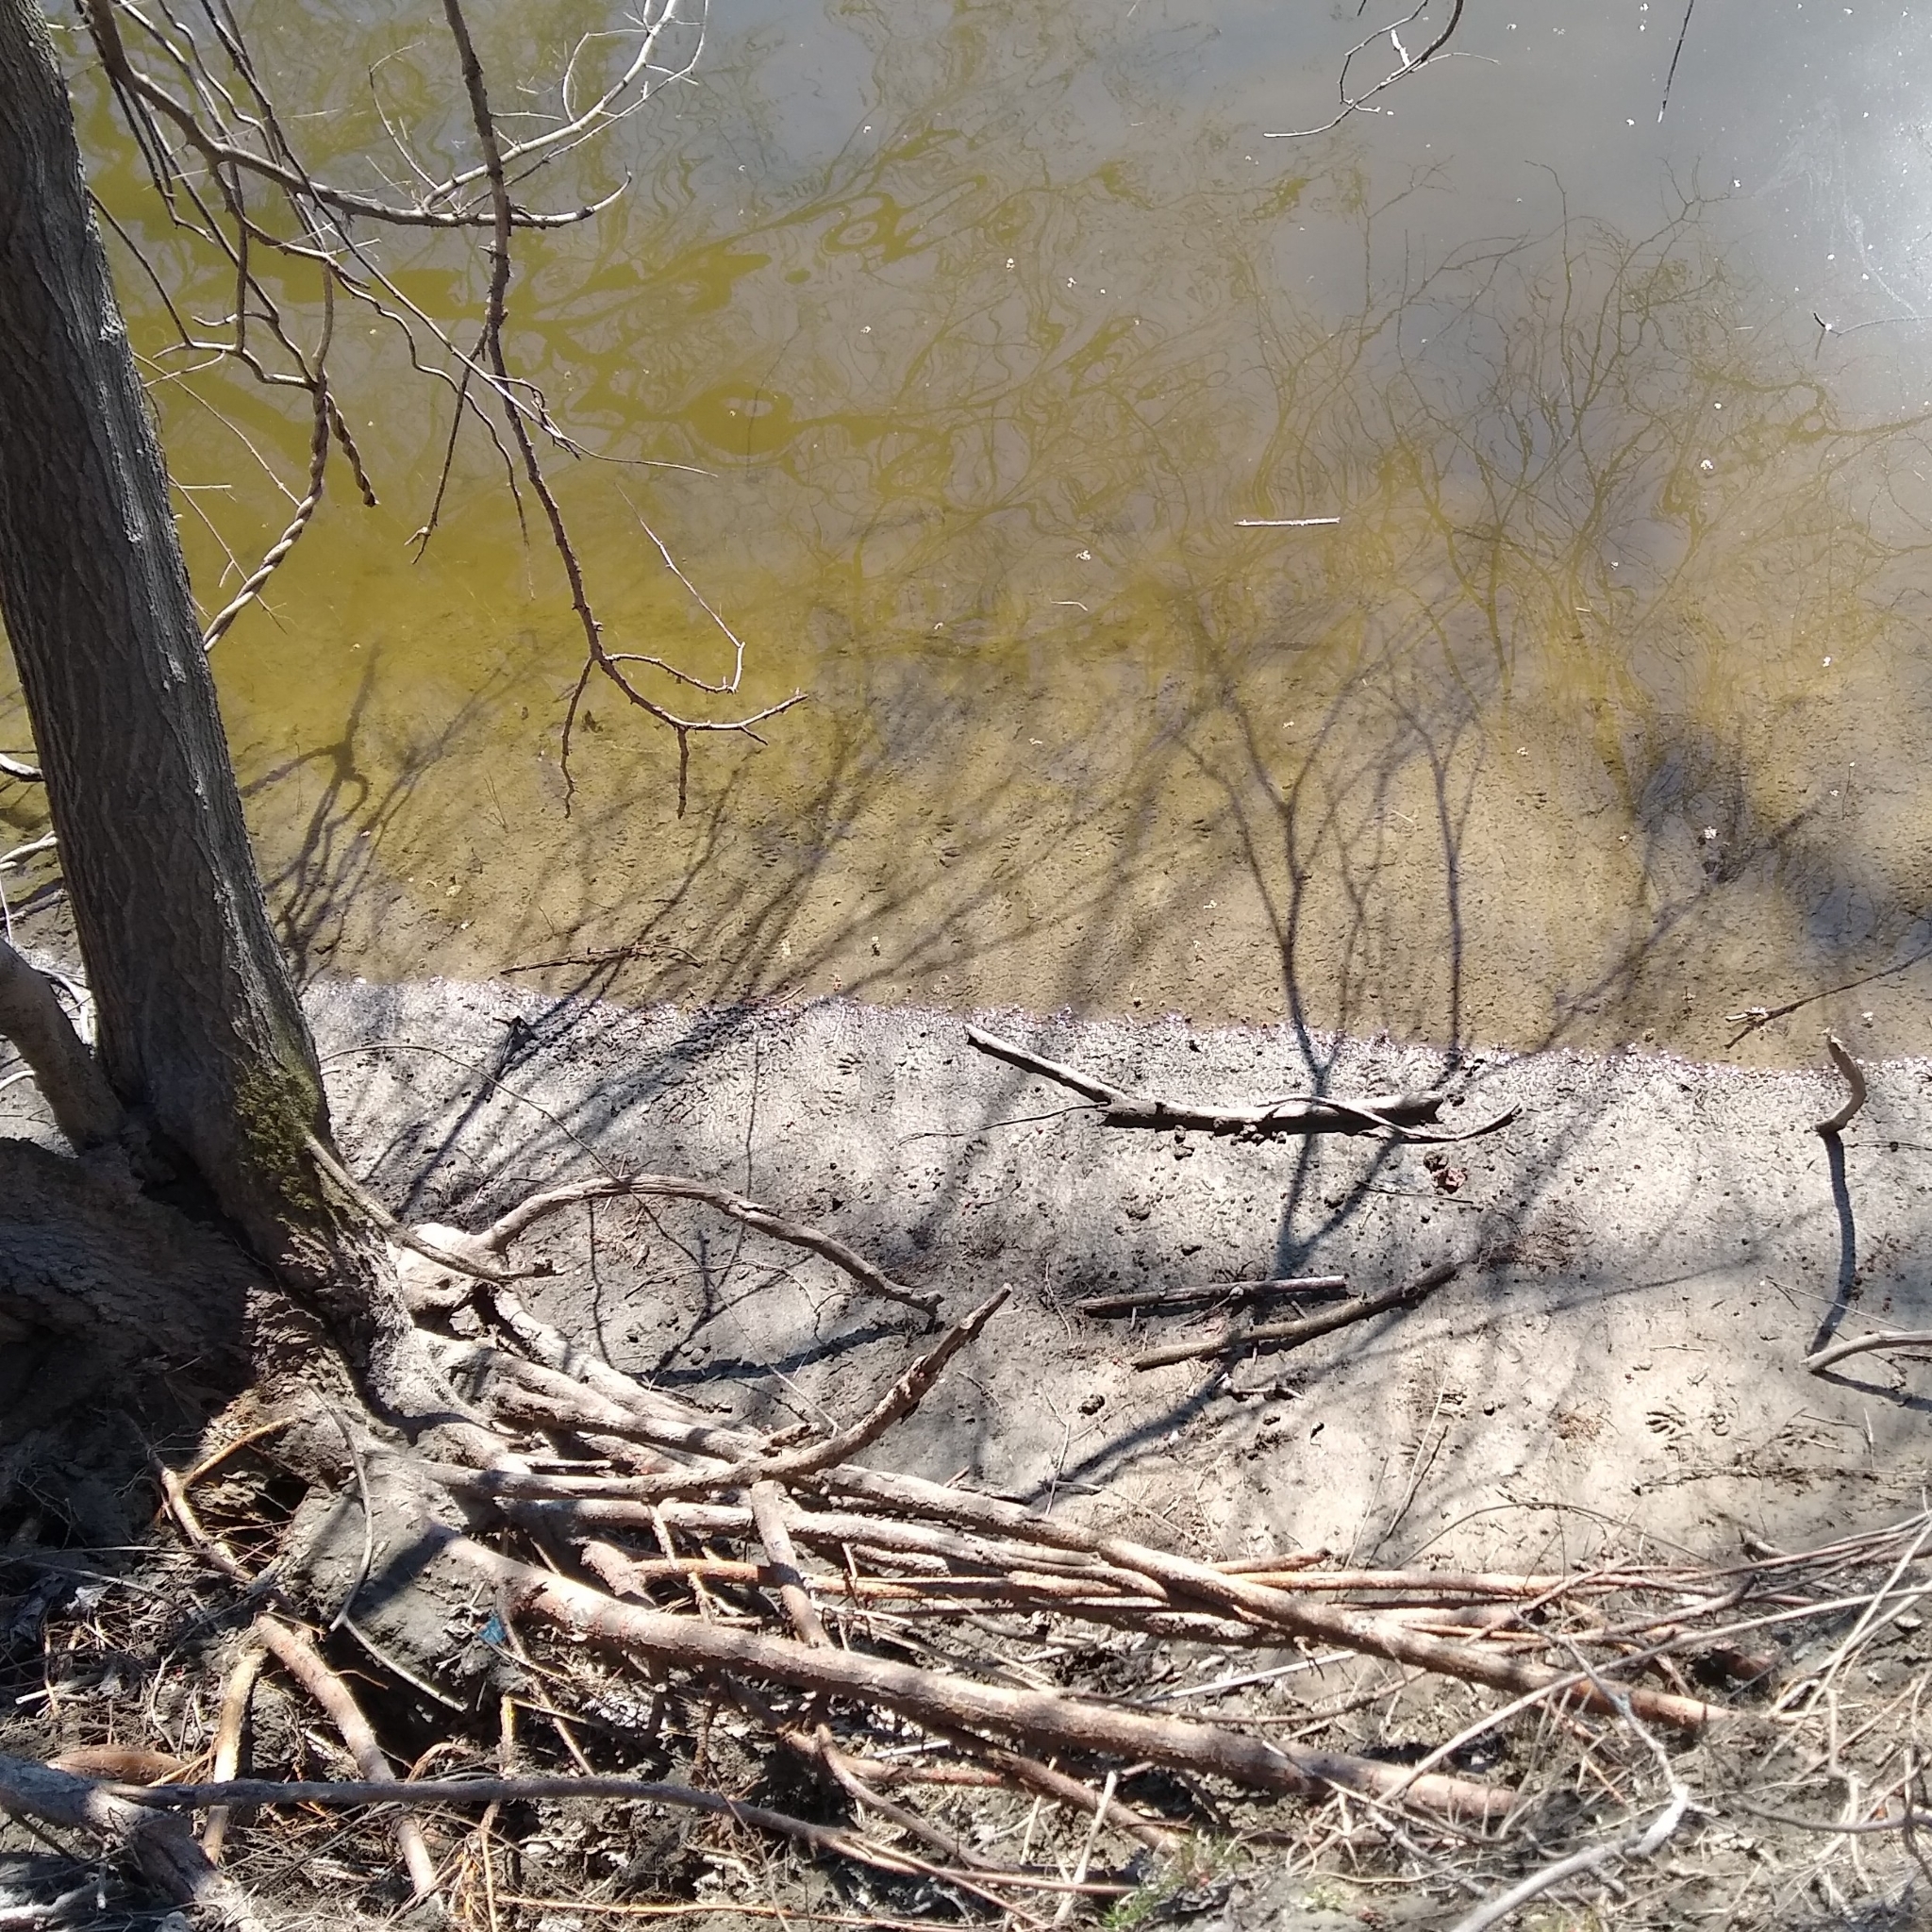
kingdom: Animalia
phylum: Chordata
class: Mammalia
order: Carnivora
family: Procyonidae
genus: Procyon
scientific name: Procyon lotor
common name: Raccoon
